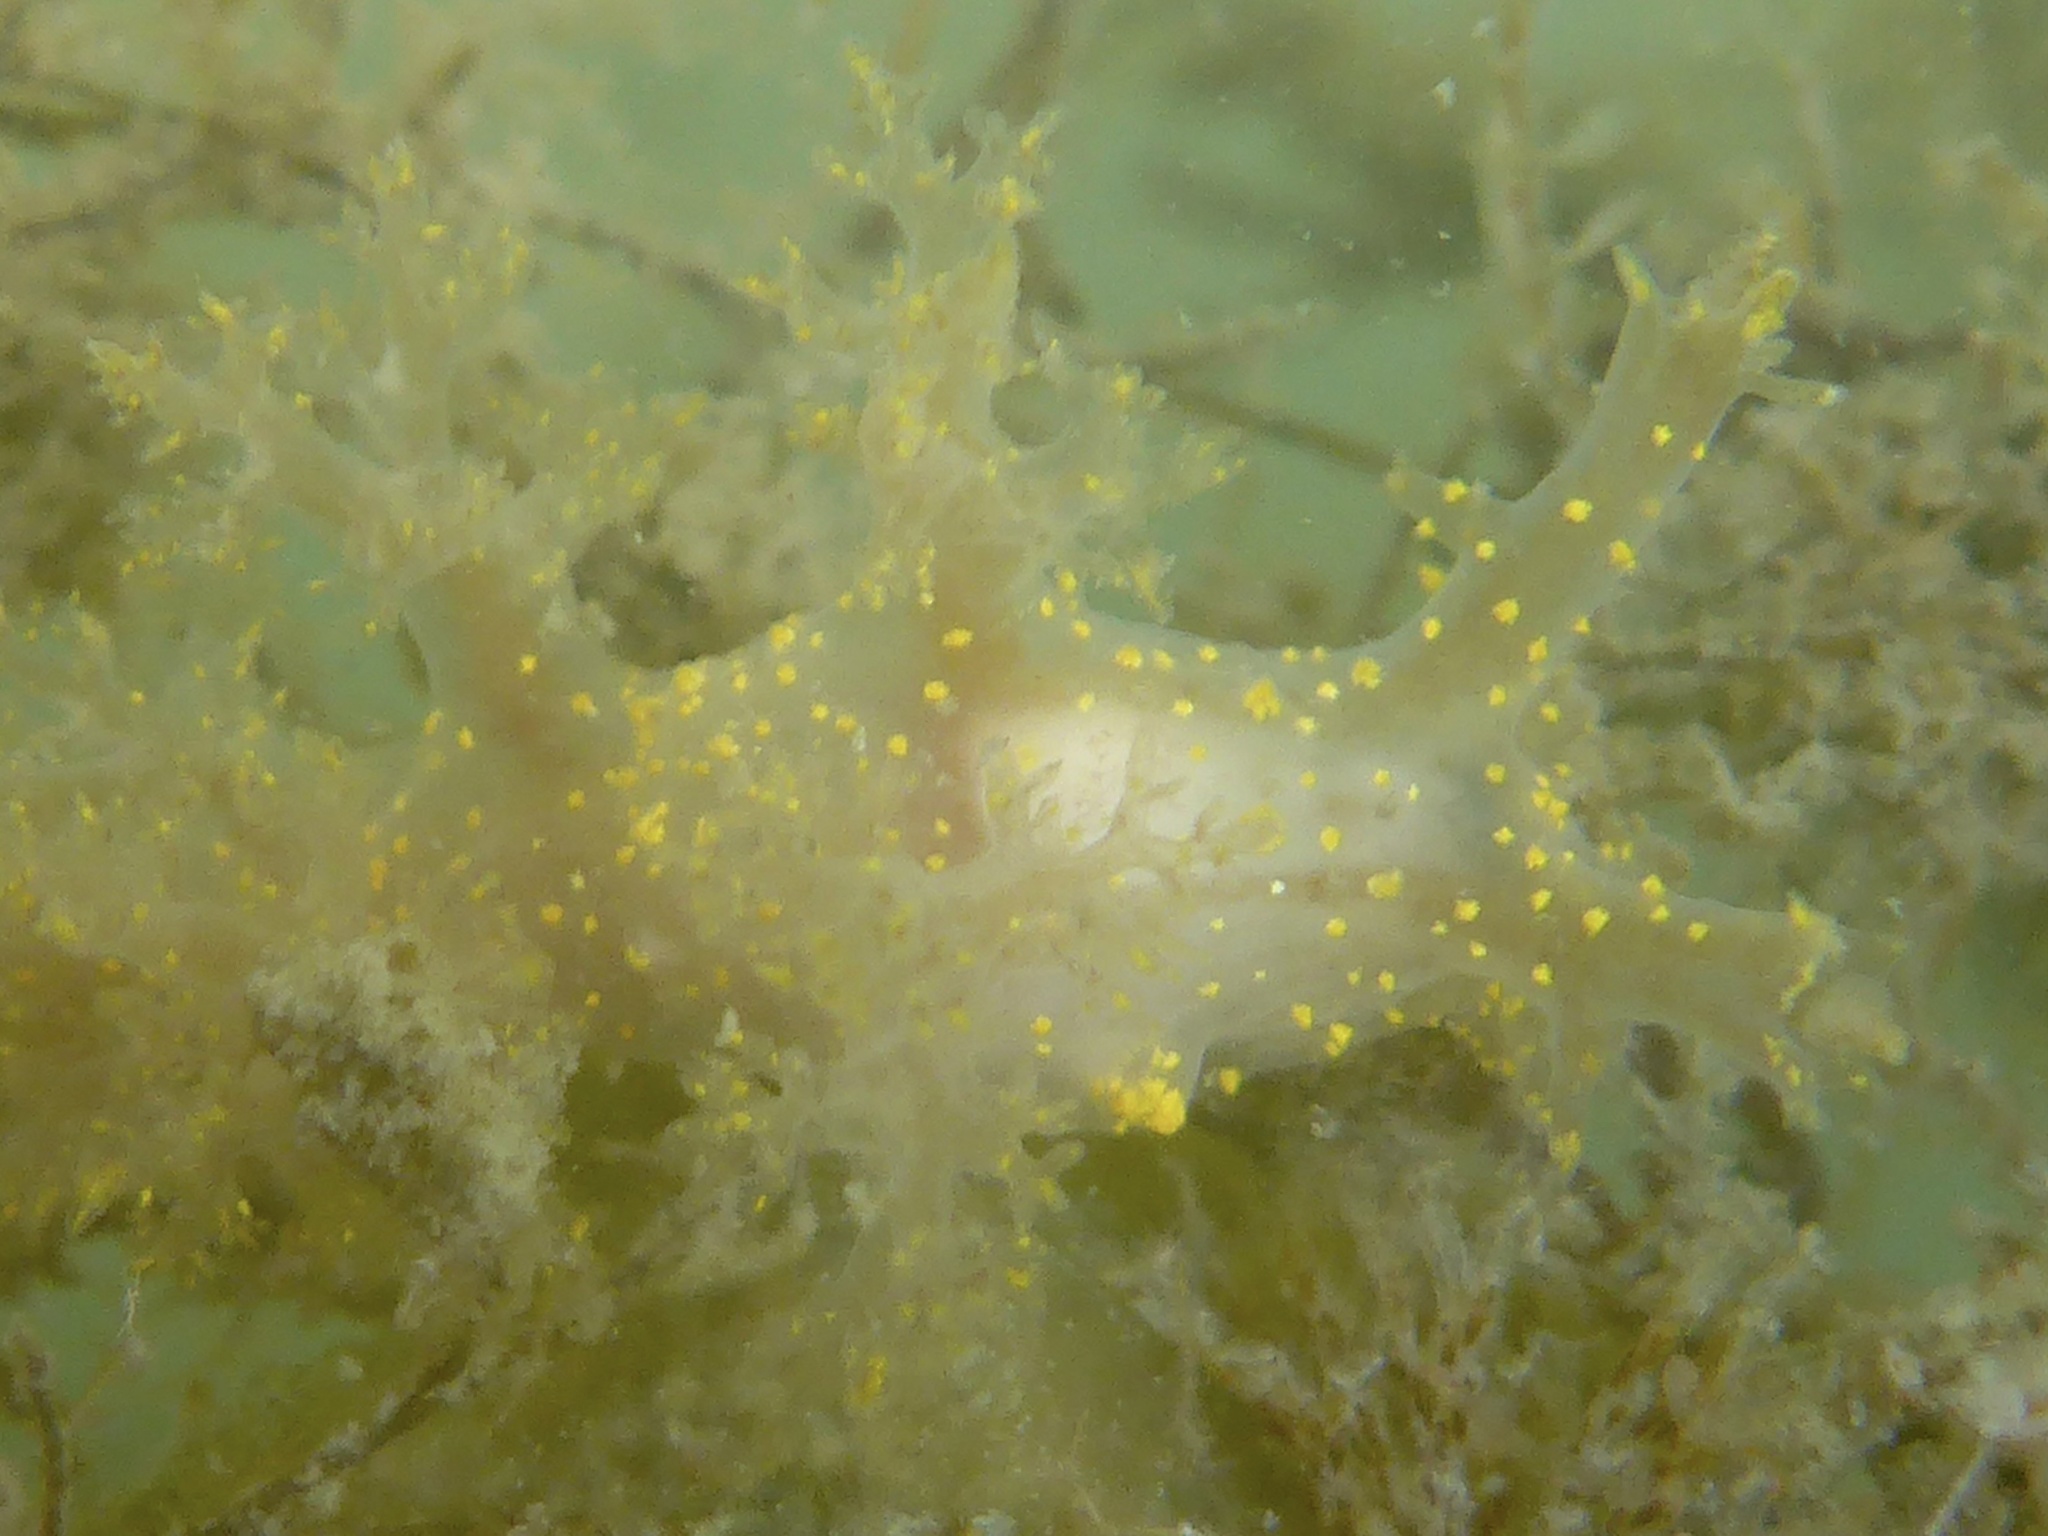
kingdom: Animalia
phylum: Mollusca
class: Gastropoda
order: Nudibranchia
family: Dendronotidae
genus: Dendronotus
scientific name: Dendronotus venustus
